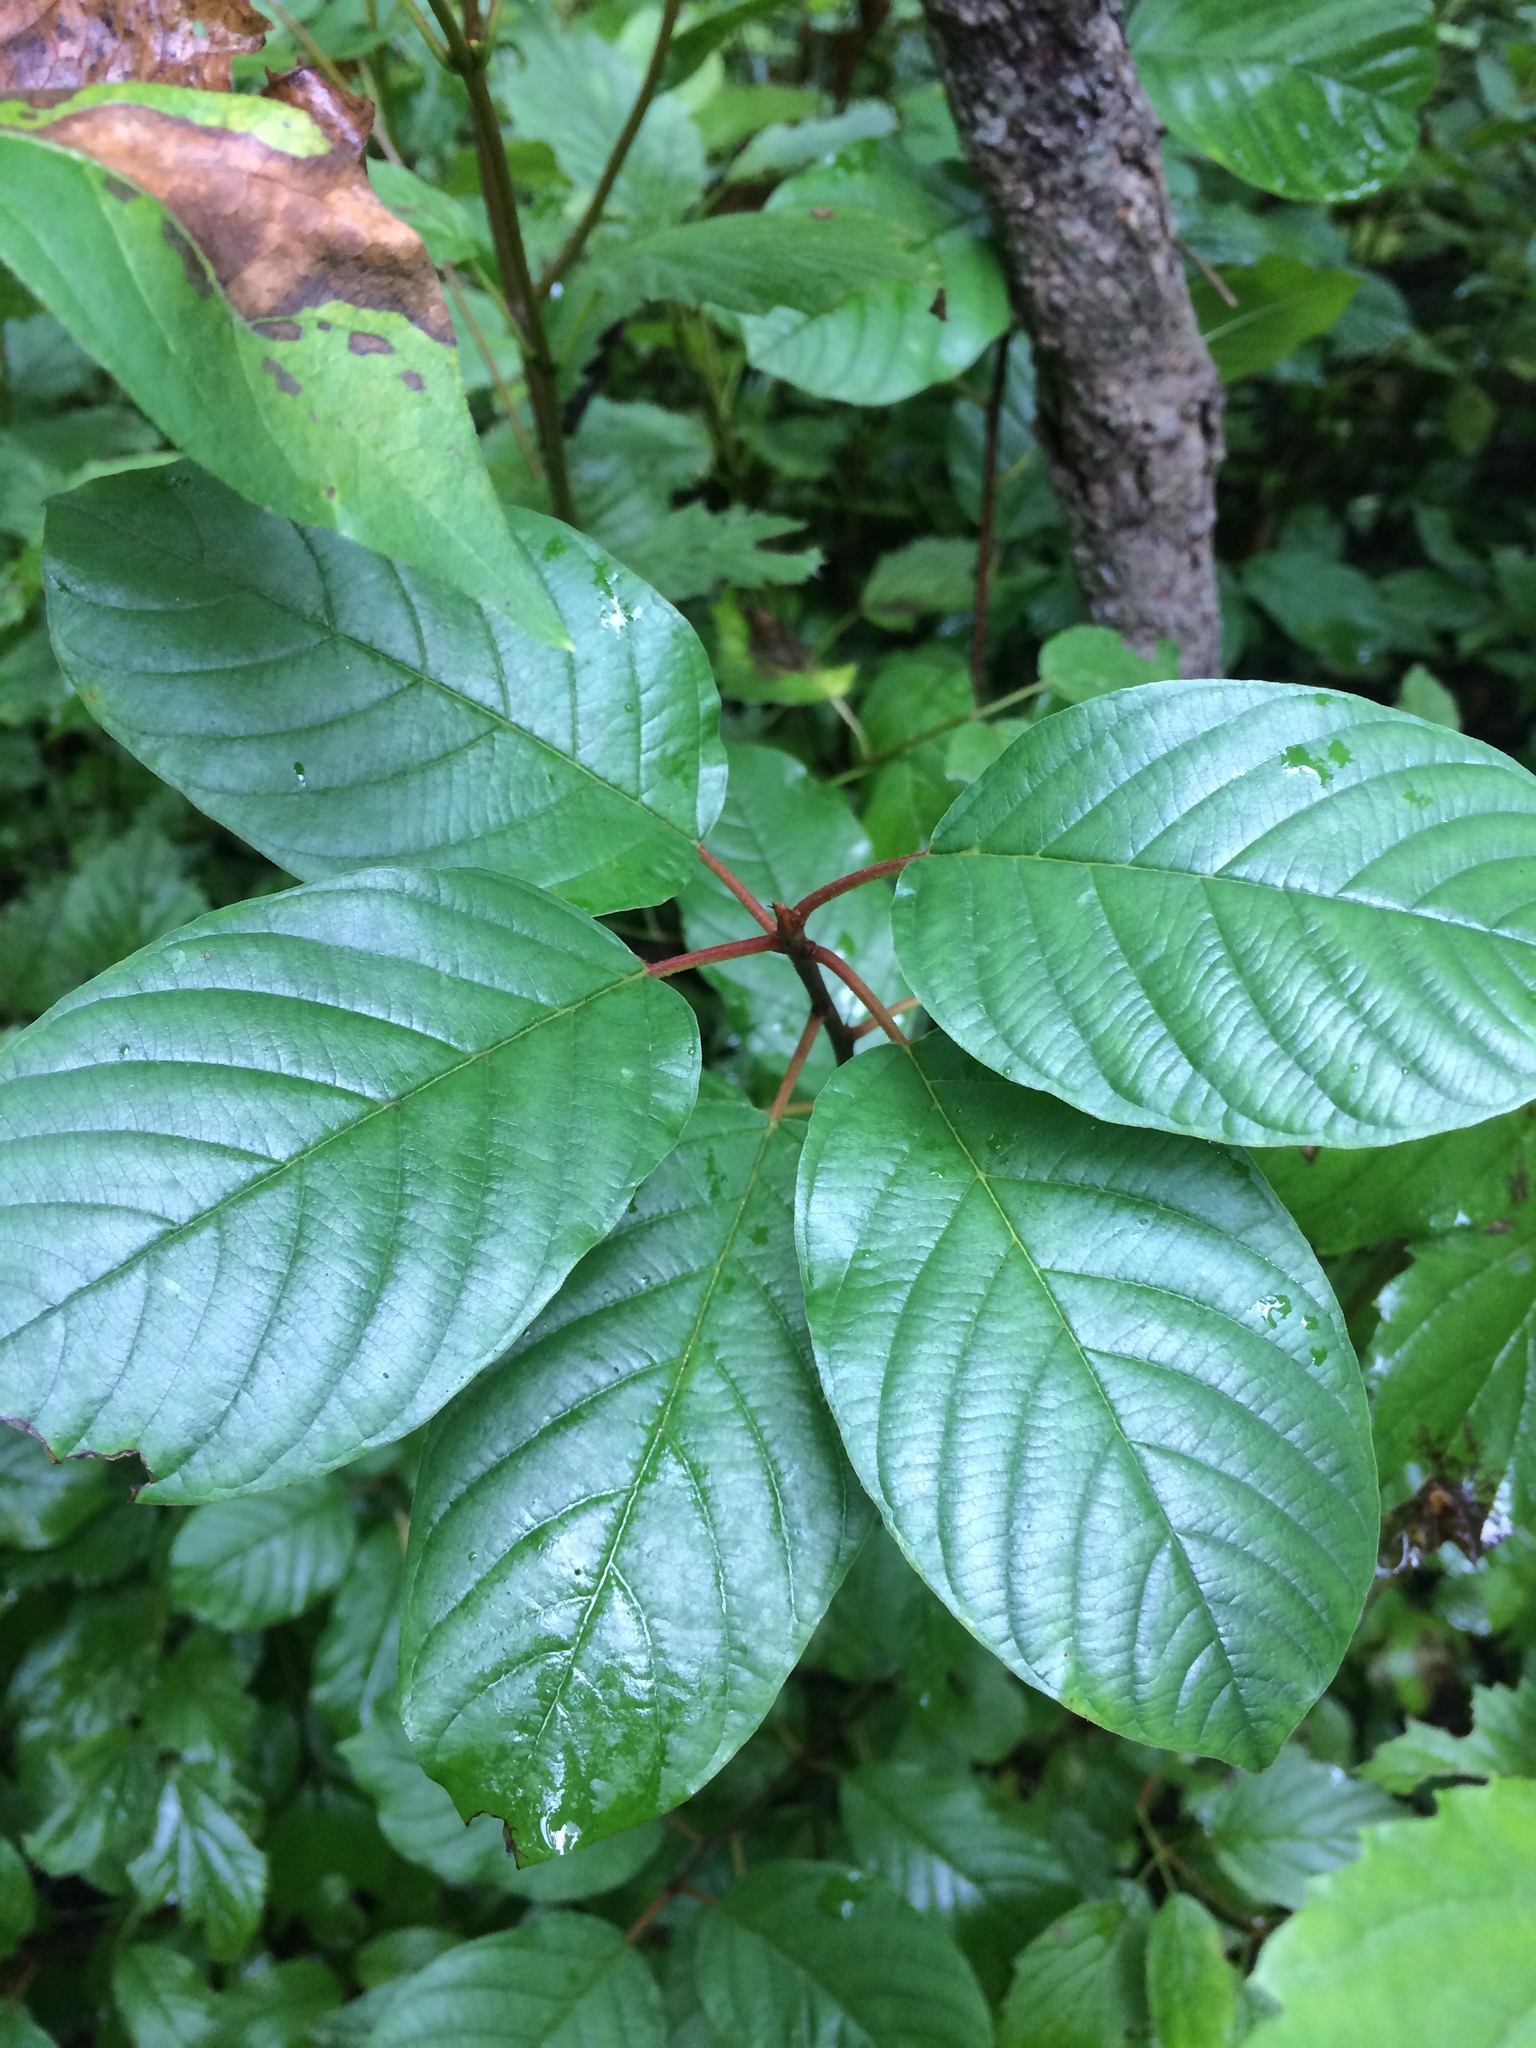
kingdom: Plantae
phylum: Tracheophyta
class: Magnoliopsida
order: Rosales
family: Rhamnaceae
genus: Frangula
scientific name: Frangula alnus
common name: Alder buckthorn
